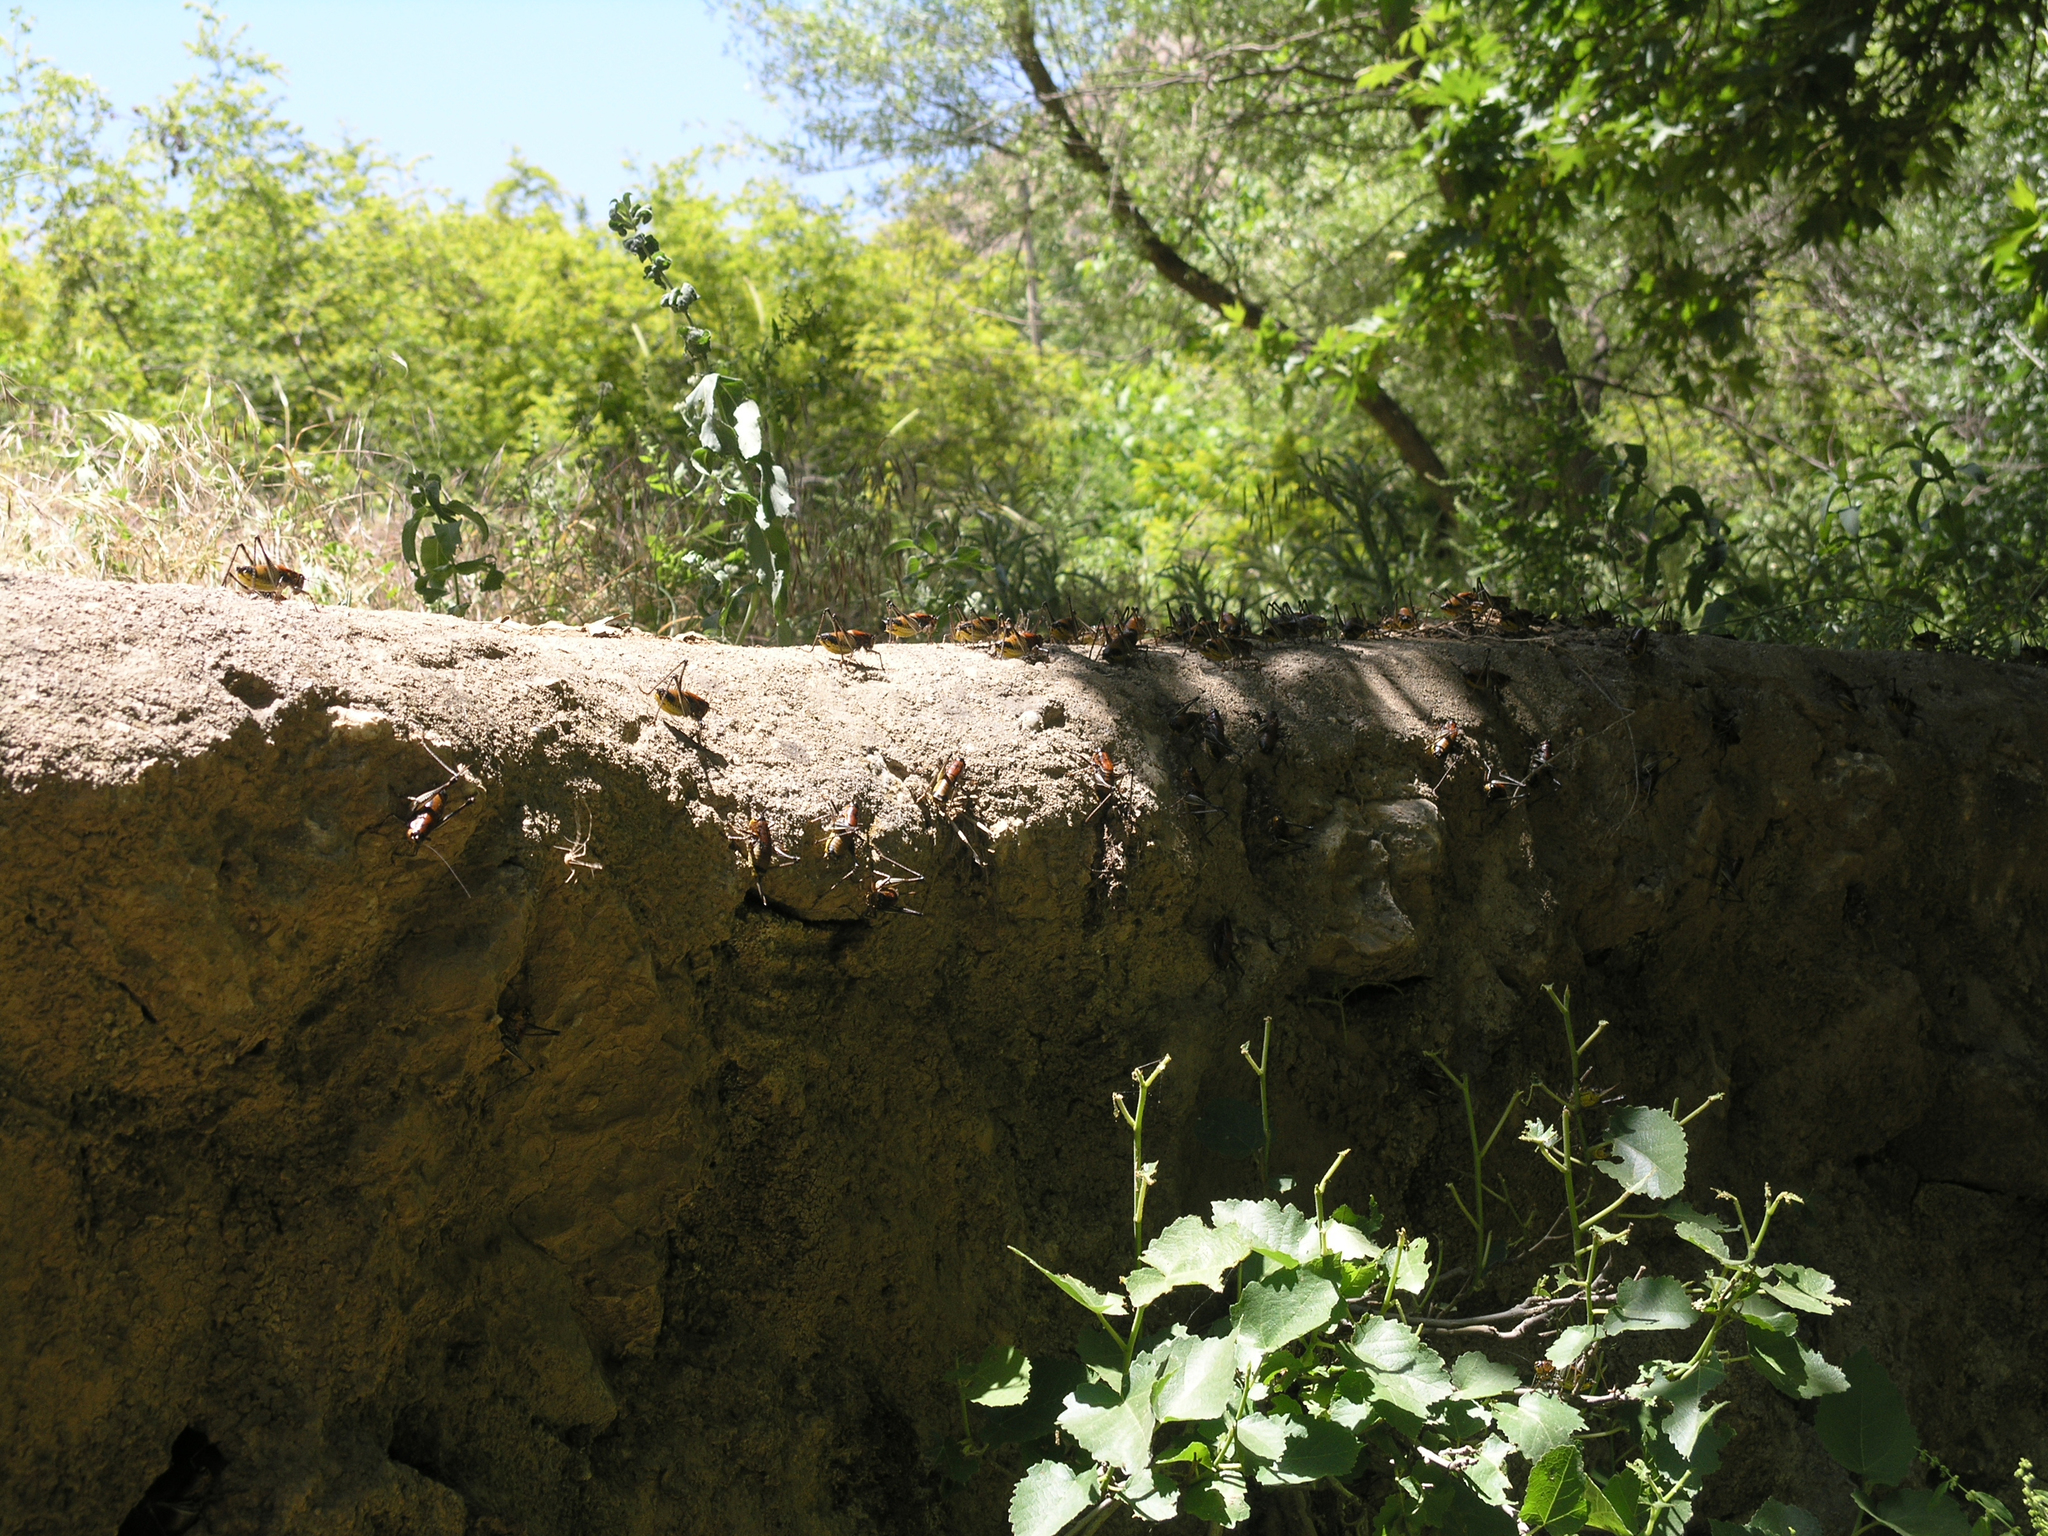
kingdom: Animalia
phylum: Arthropoda
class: Insecta
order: Orthoptera
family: Tettigoniidae
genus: Uvarovistia
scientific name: Uvarovistia satunini
